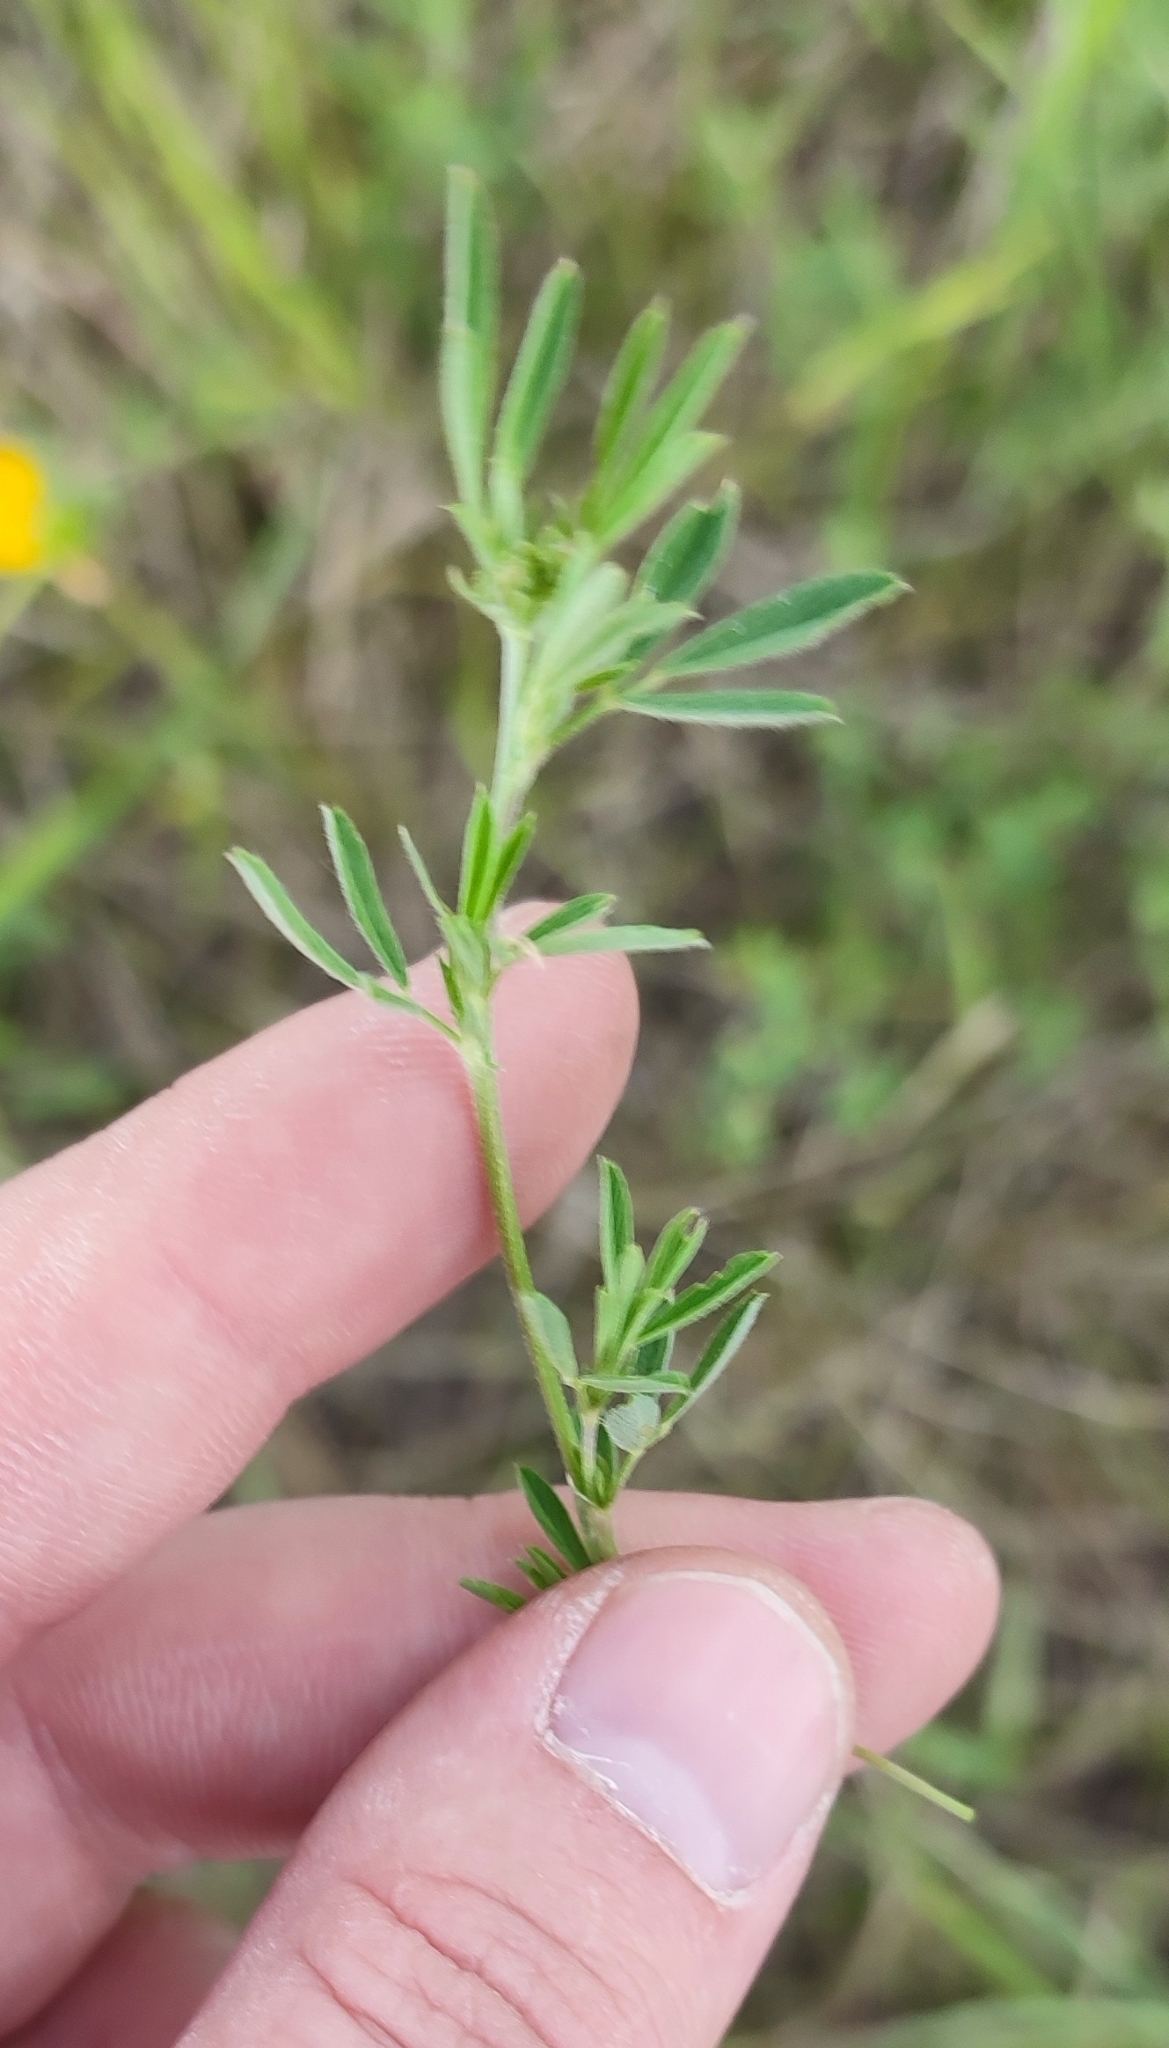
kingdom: Plantae
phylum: Tracheophyta
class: Magnoliopsida
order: Fabales
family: Fabaceae
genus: Medicago
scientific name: Medicago falcata
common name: Sickle medick
